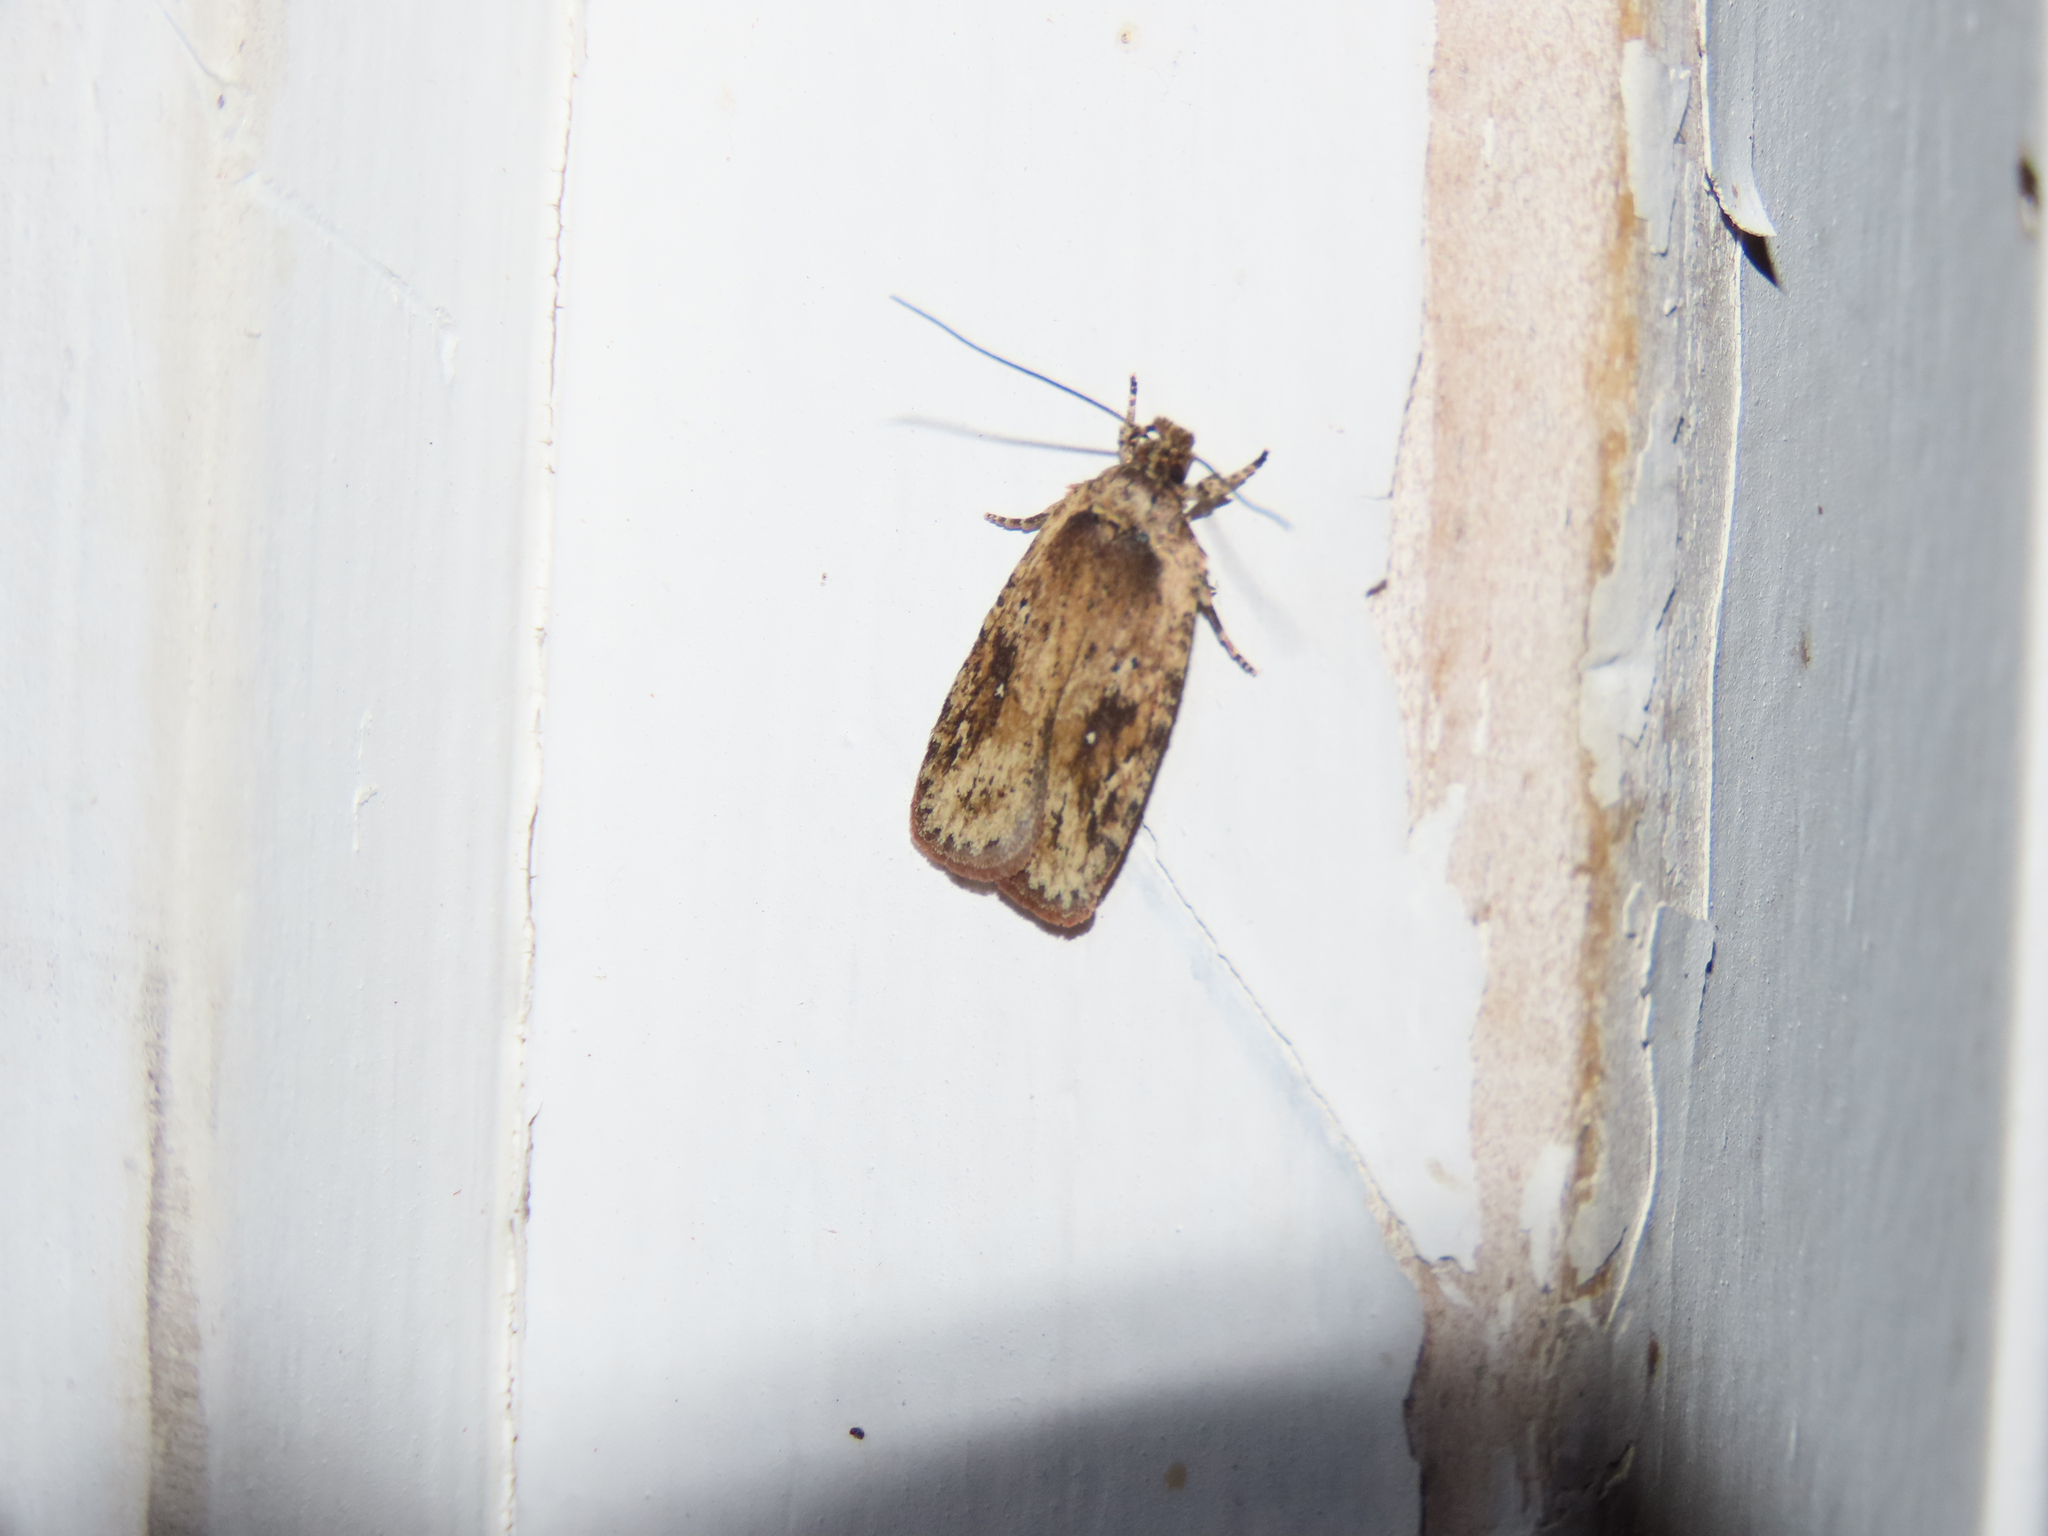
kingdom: Animalia
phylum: Arthropoda
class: Insecta
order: Lepidoptera
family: Depressariidae
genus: Agonopterix
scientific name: Agonopterix pulvipennella
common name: Goldenrod leafffolder
